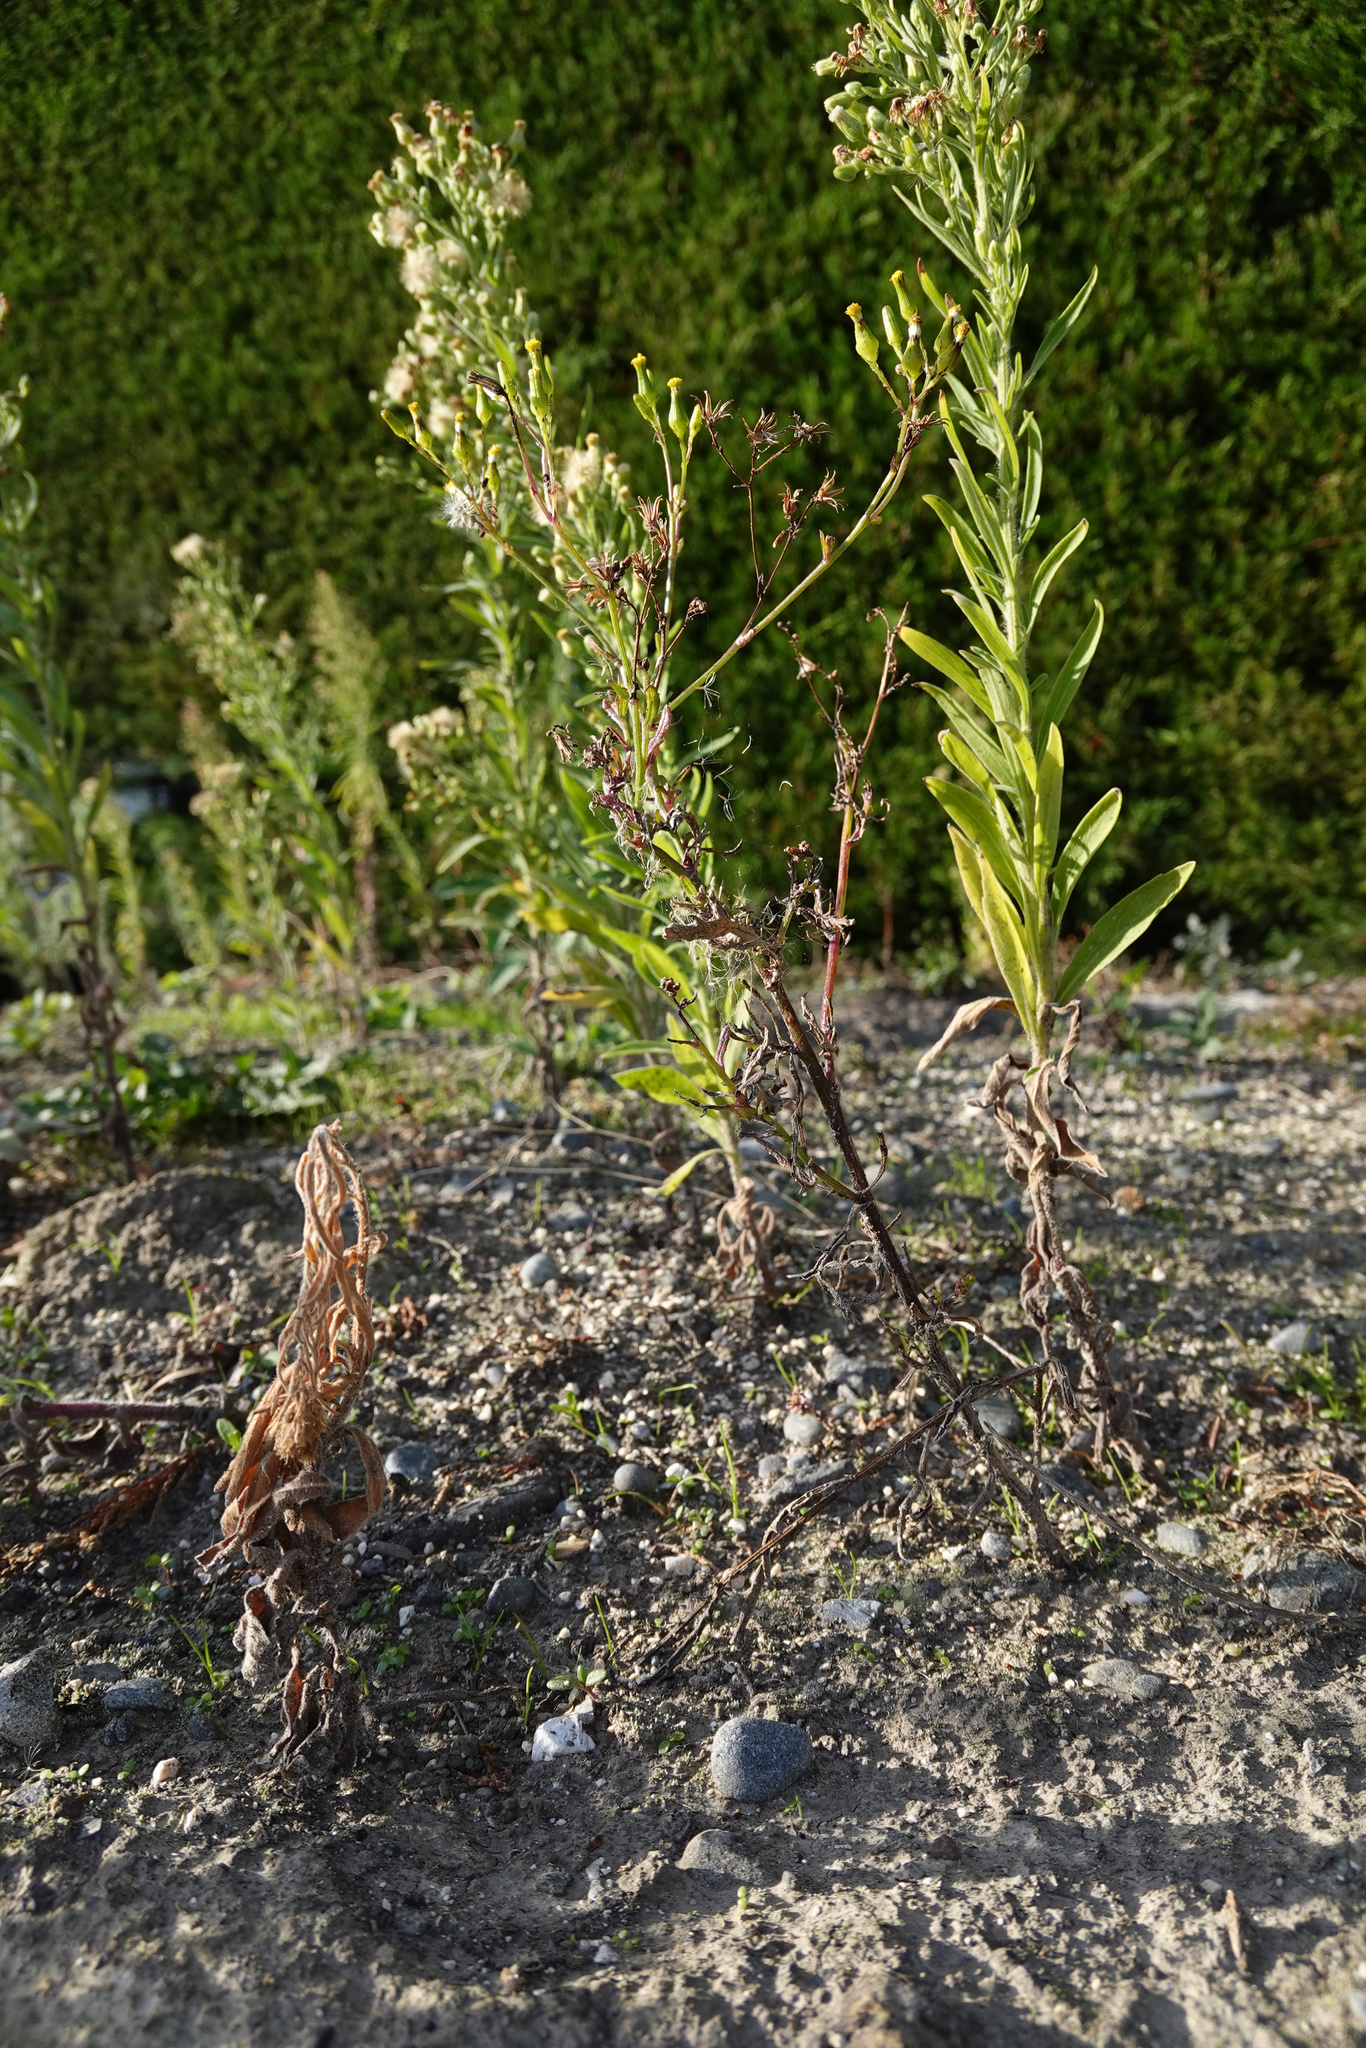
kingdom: Plantae
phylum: Tracheophyta
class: Magnoliopsida
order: Asterales
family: Asteraceae
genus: Senecio
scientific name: Senecio hispidulus
